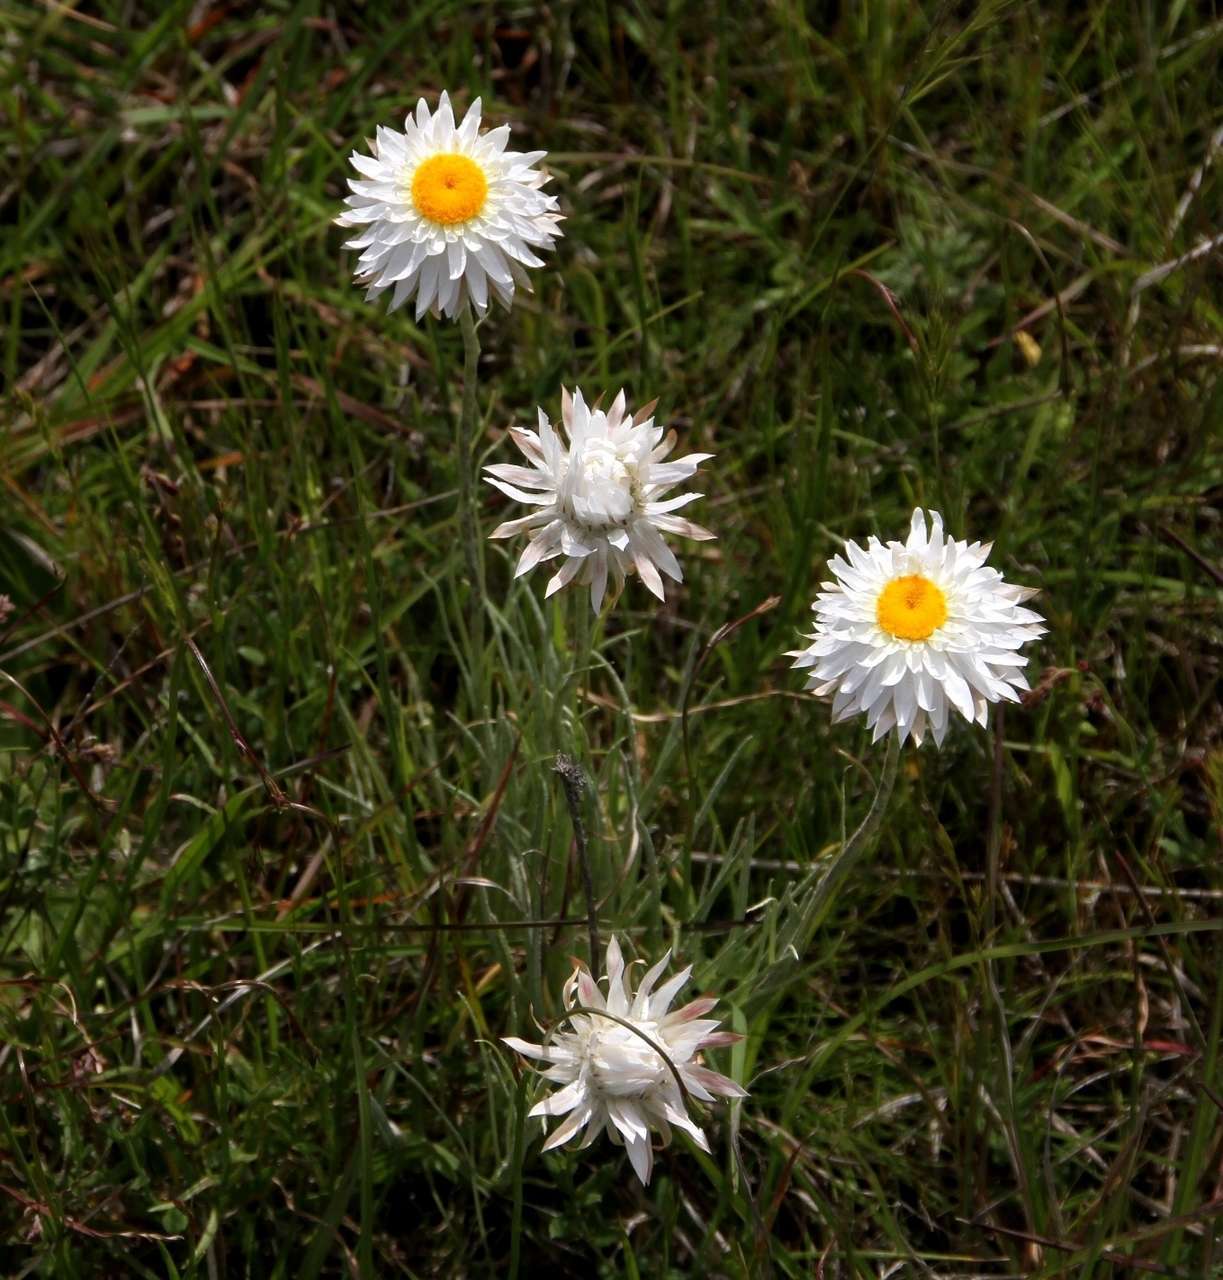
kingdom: Plantae
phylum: Tracheophyta
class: Magnoliopsida
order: Asterales
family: Asteraceae
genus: Leucochrysum
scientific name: Leucochrysum albicans
